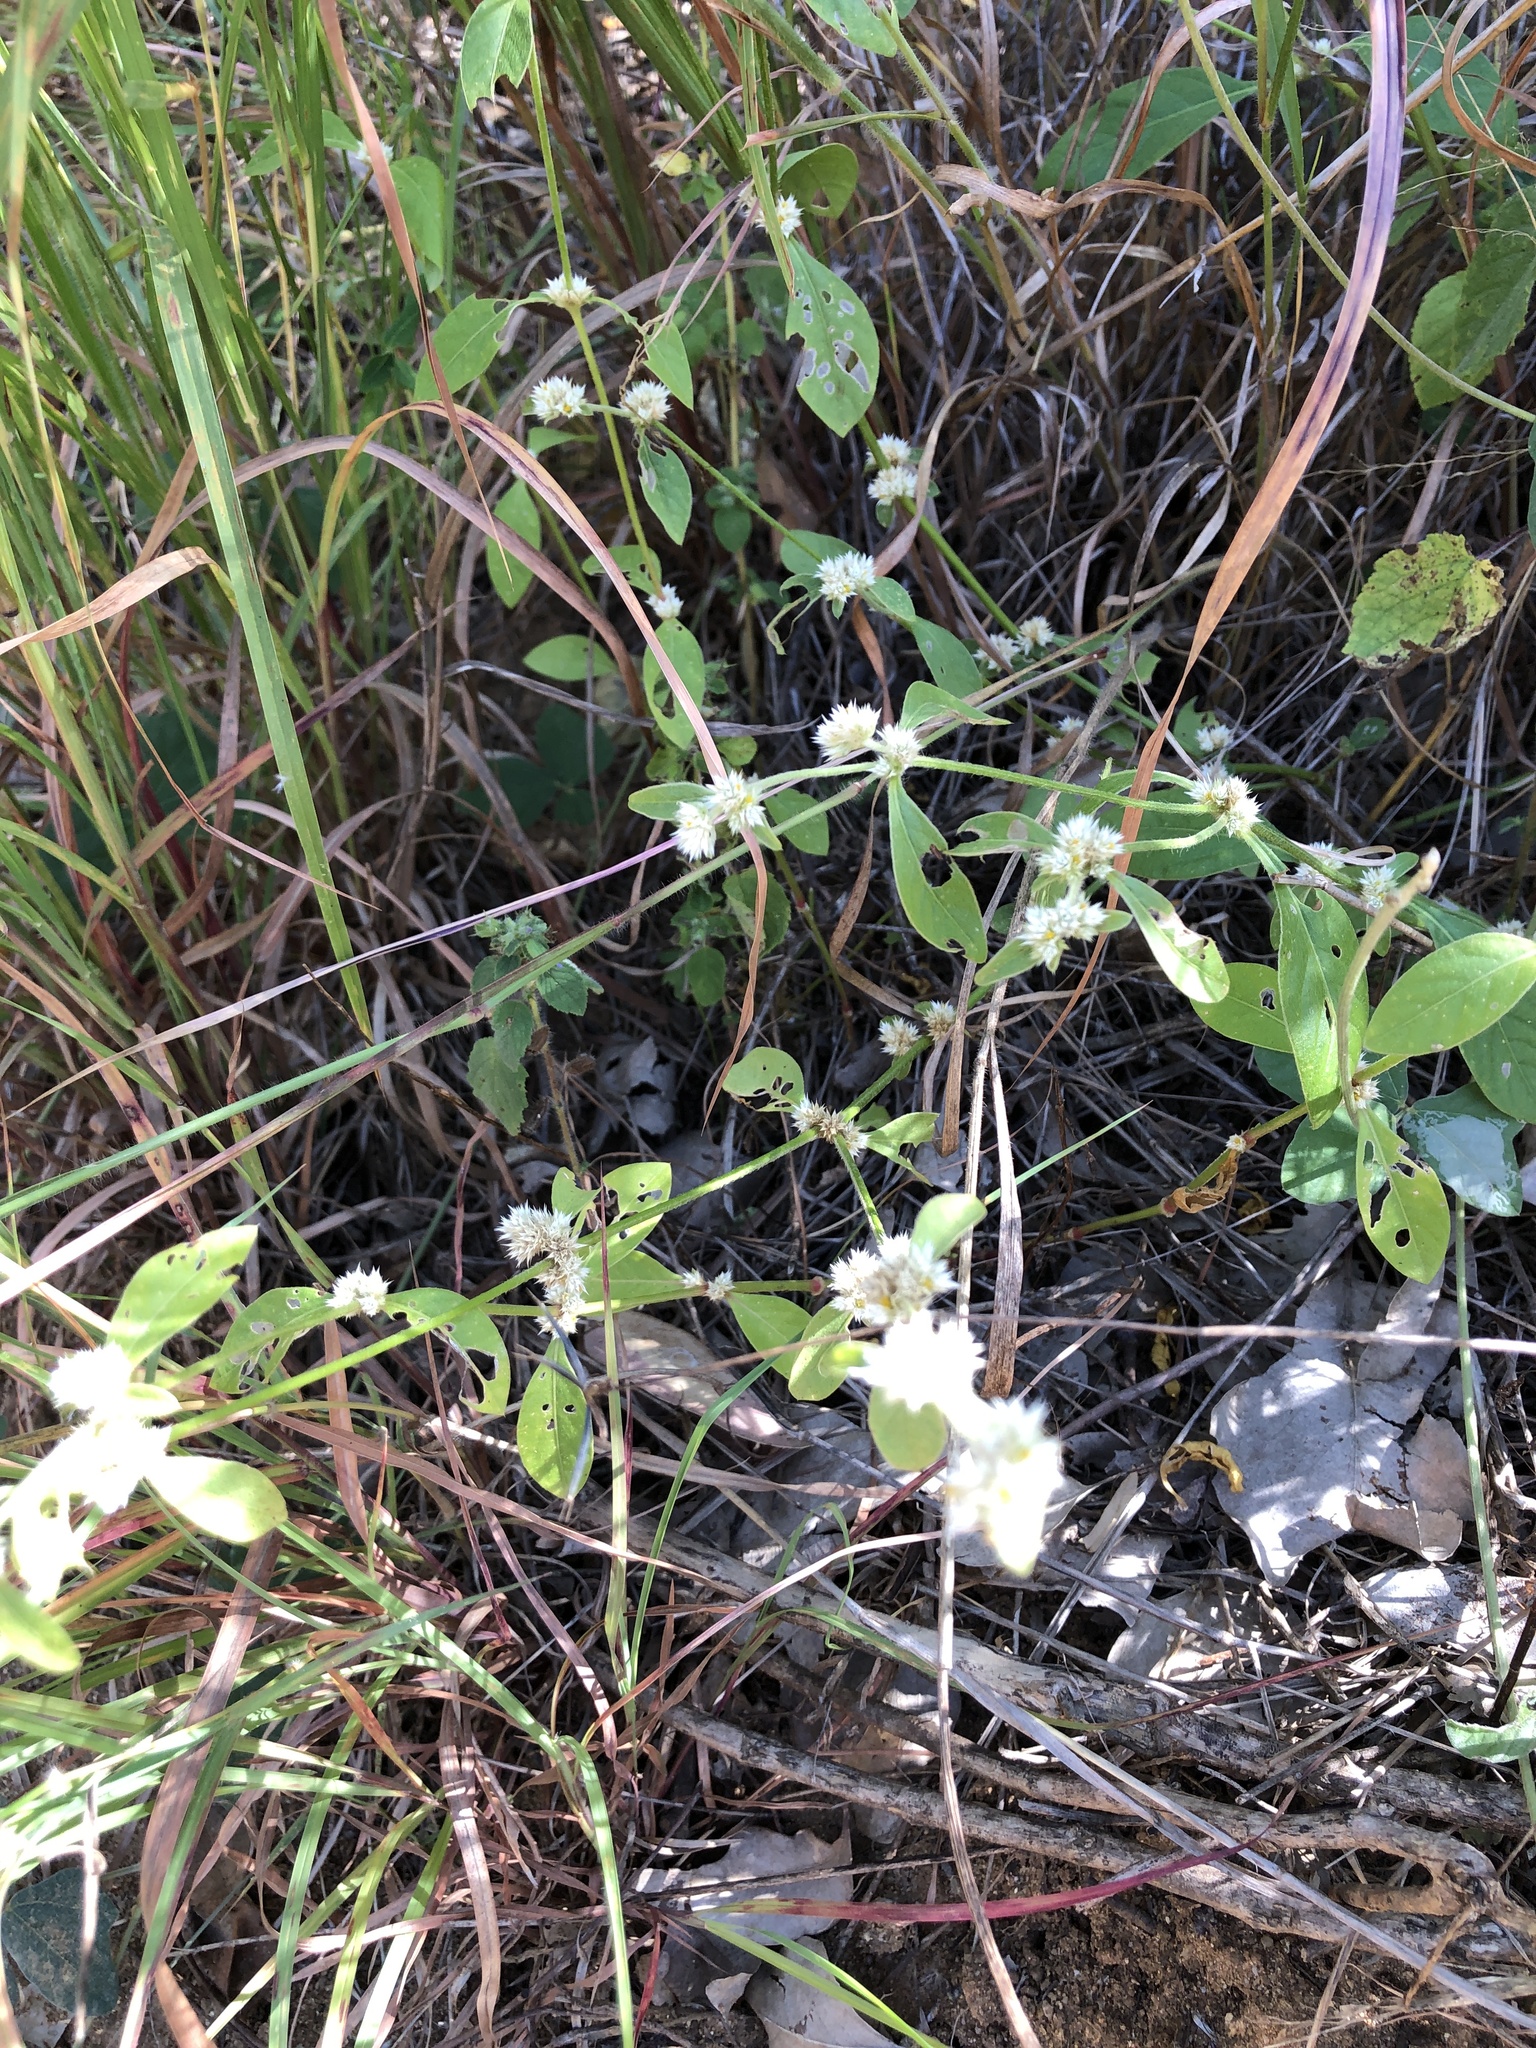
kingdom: Plantae
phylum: Tracheophyta
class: Magnoliopsida
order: Caryophyllales
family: Amaranthaceae
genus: Alternanthera
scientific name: Alternanthera ficoidea
